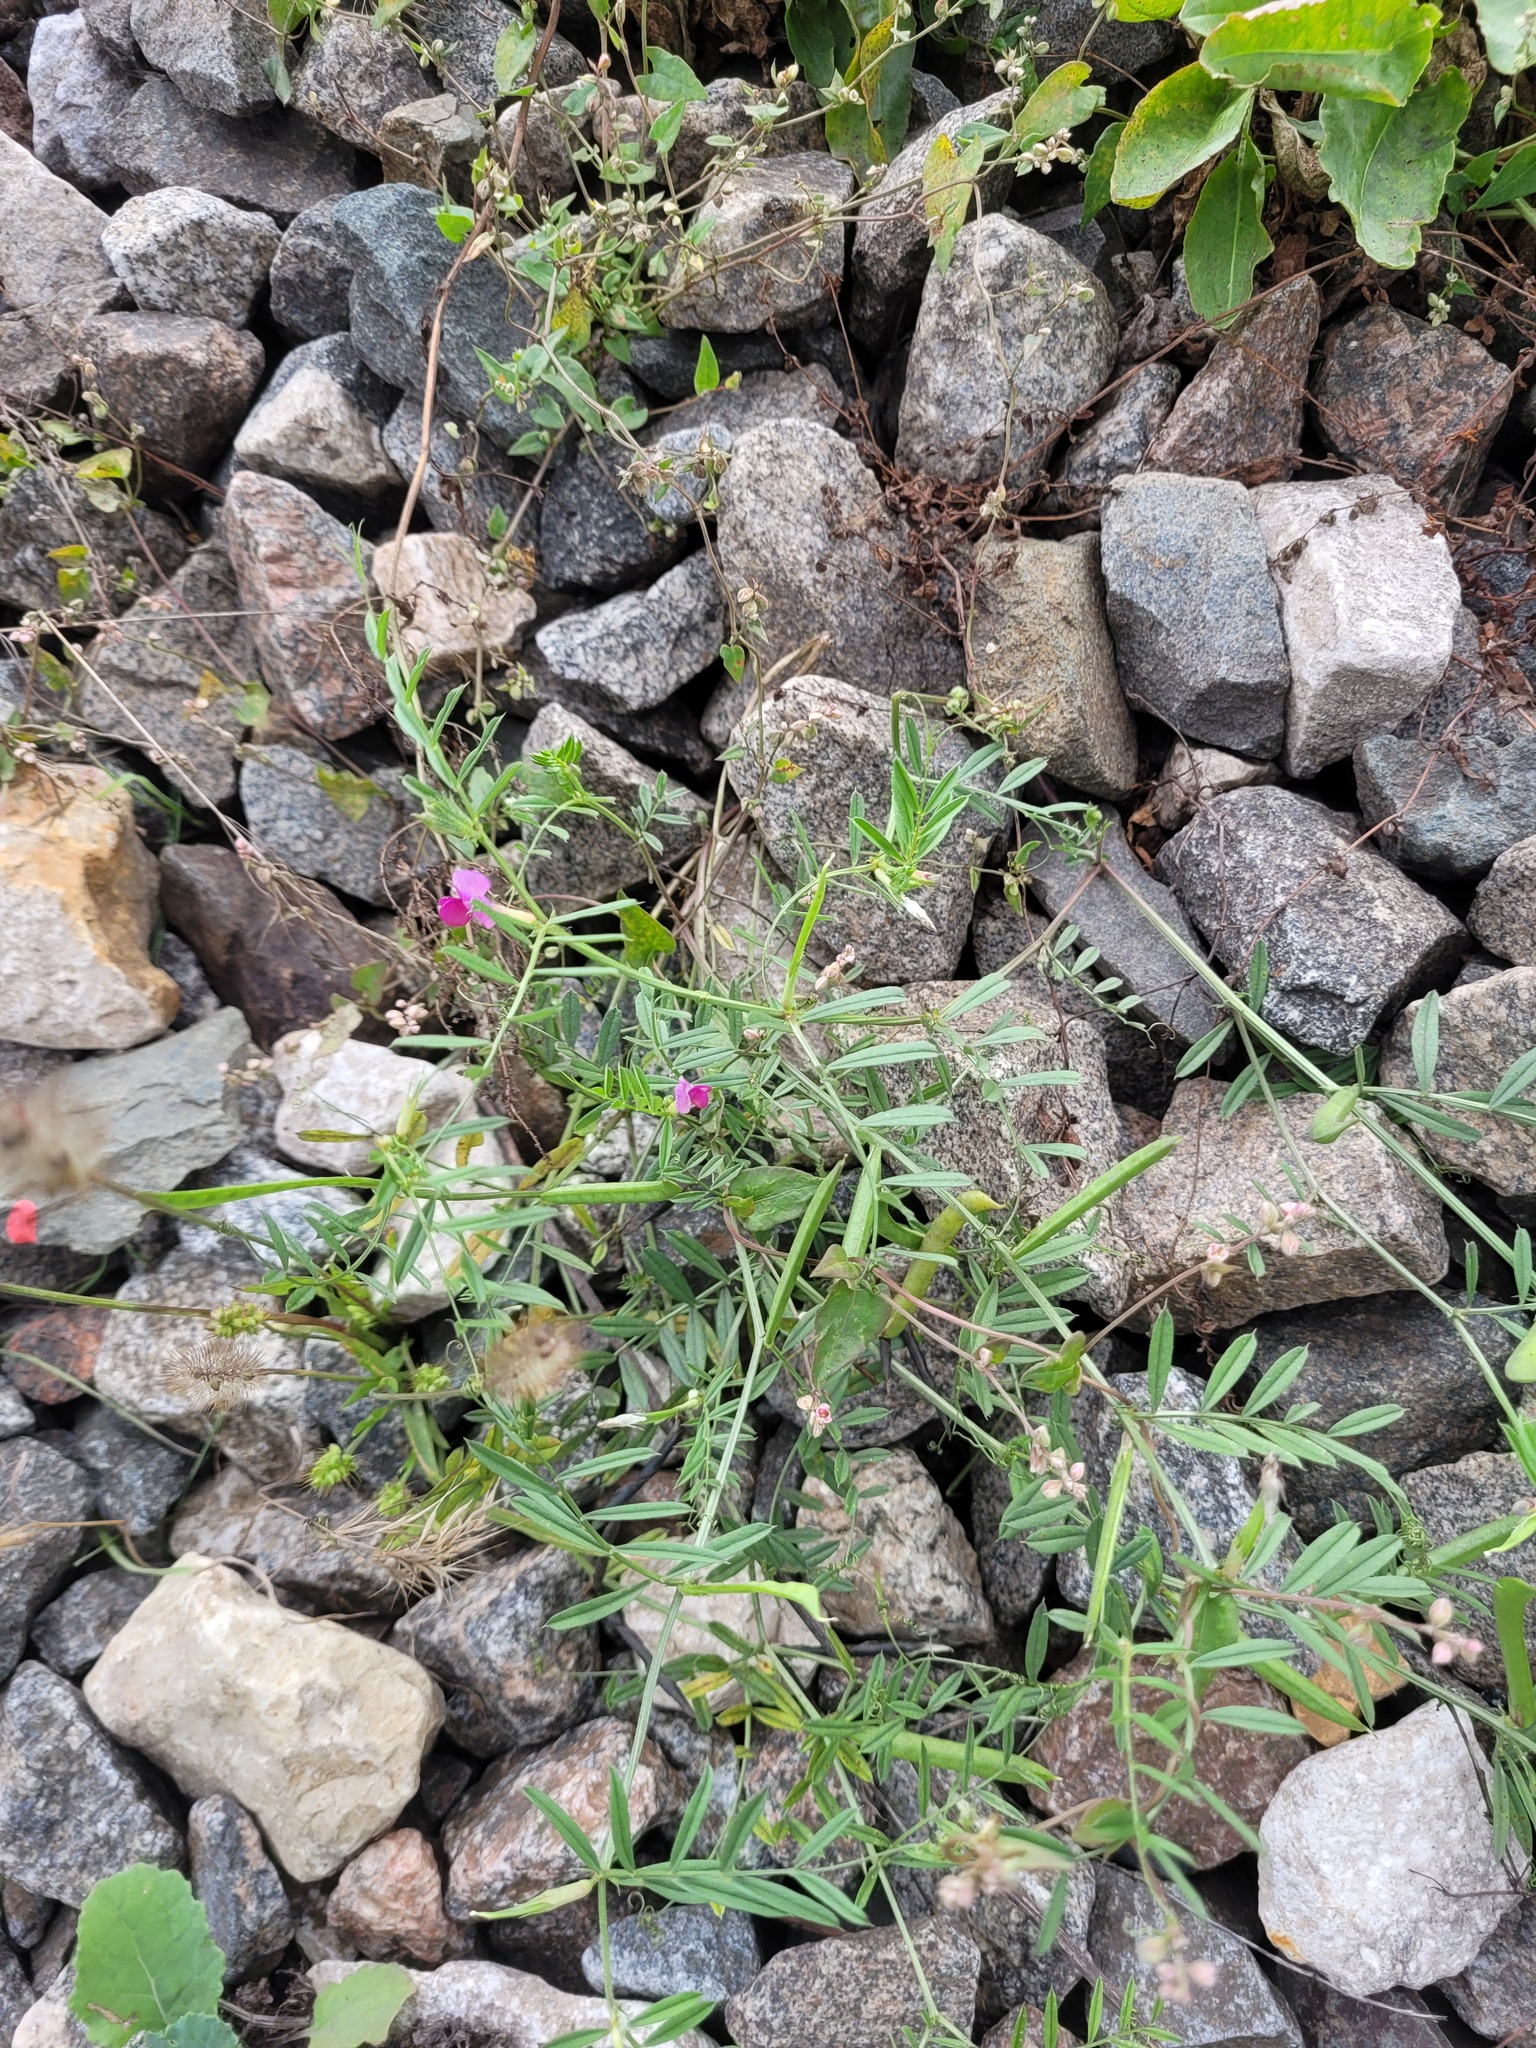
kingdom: Plantae
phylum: Tracheophyta
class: Magnoliopsida
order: Fabales
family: Fabaceae
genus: Vicia
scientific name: Vicia sativa
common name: Garden vetch
